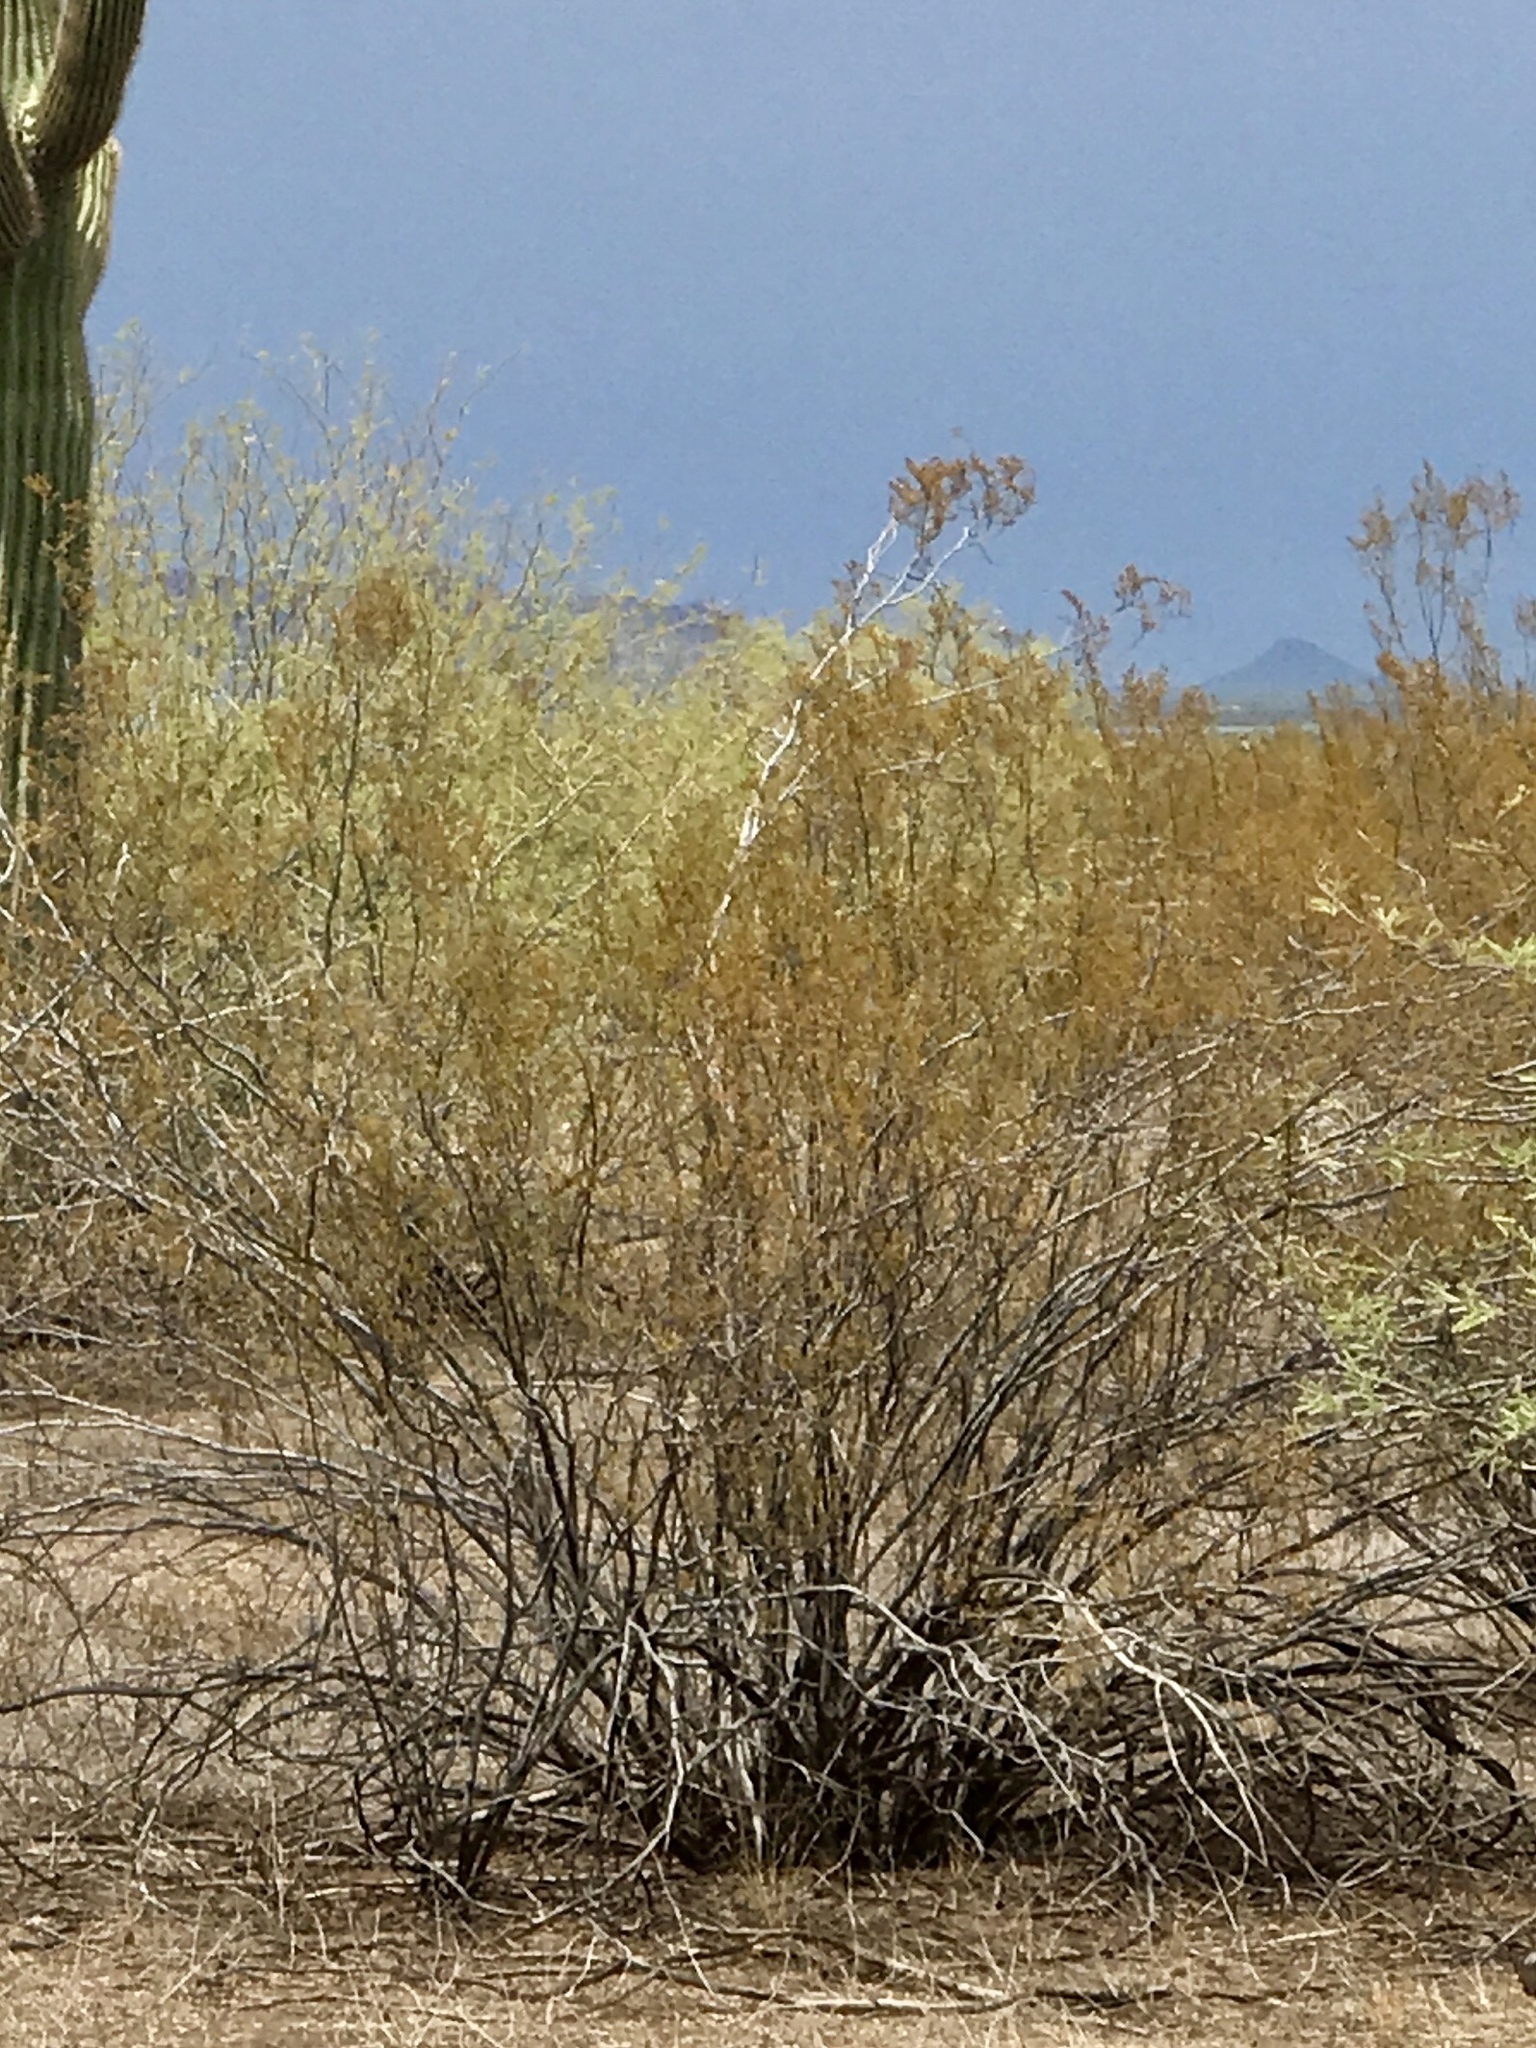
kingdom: Plantae
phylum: Tracheophyta
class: Magnoliopsida
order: Zygophyllales
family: Zygophyllaceae
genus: Larrea
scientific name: Larrea tridentata
